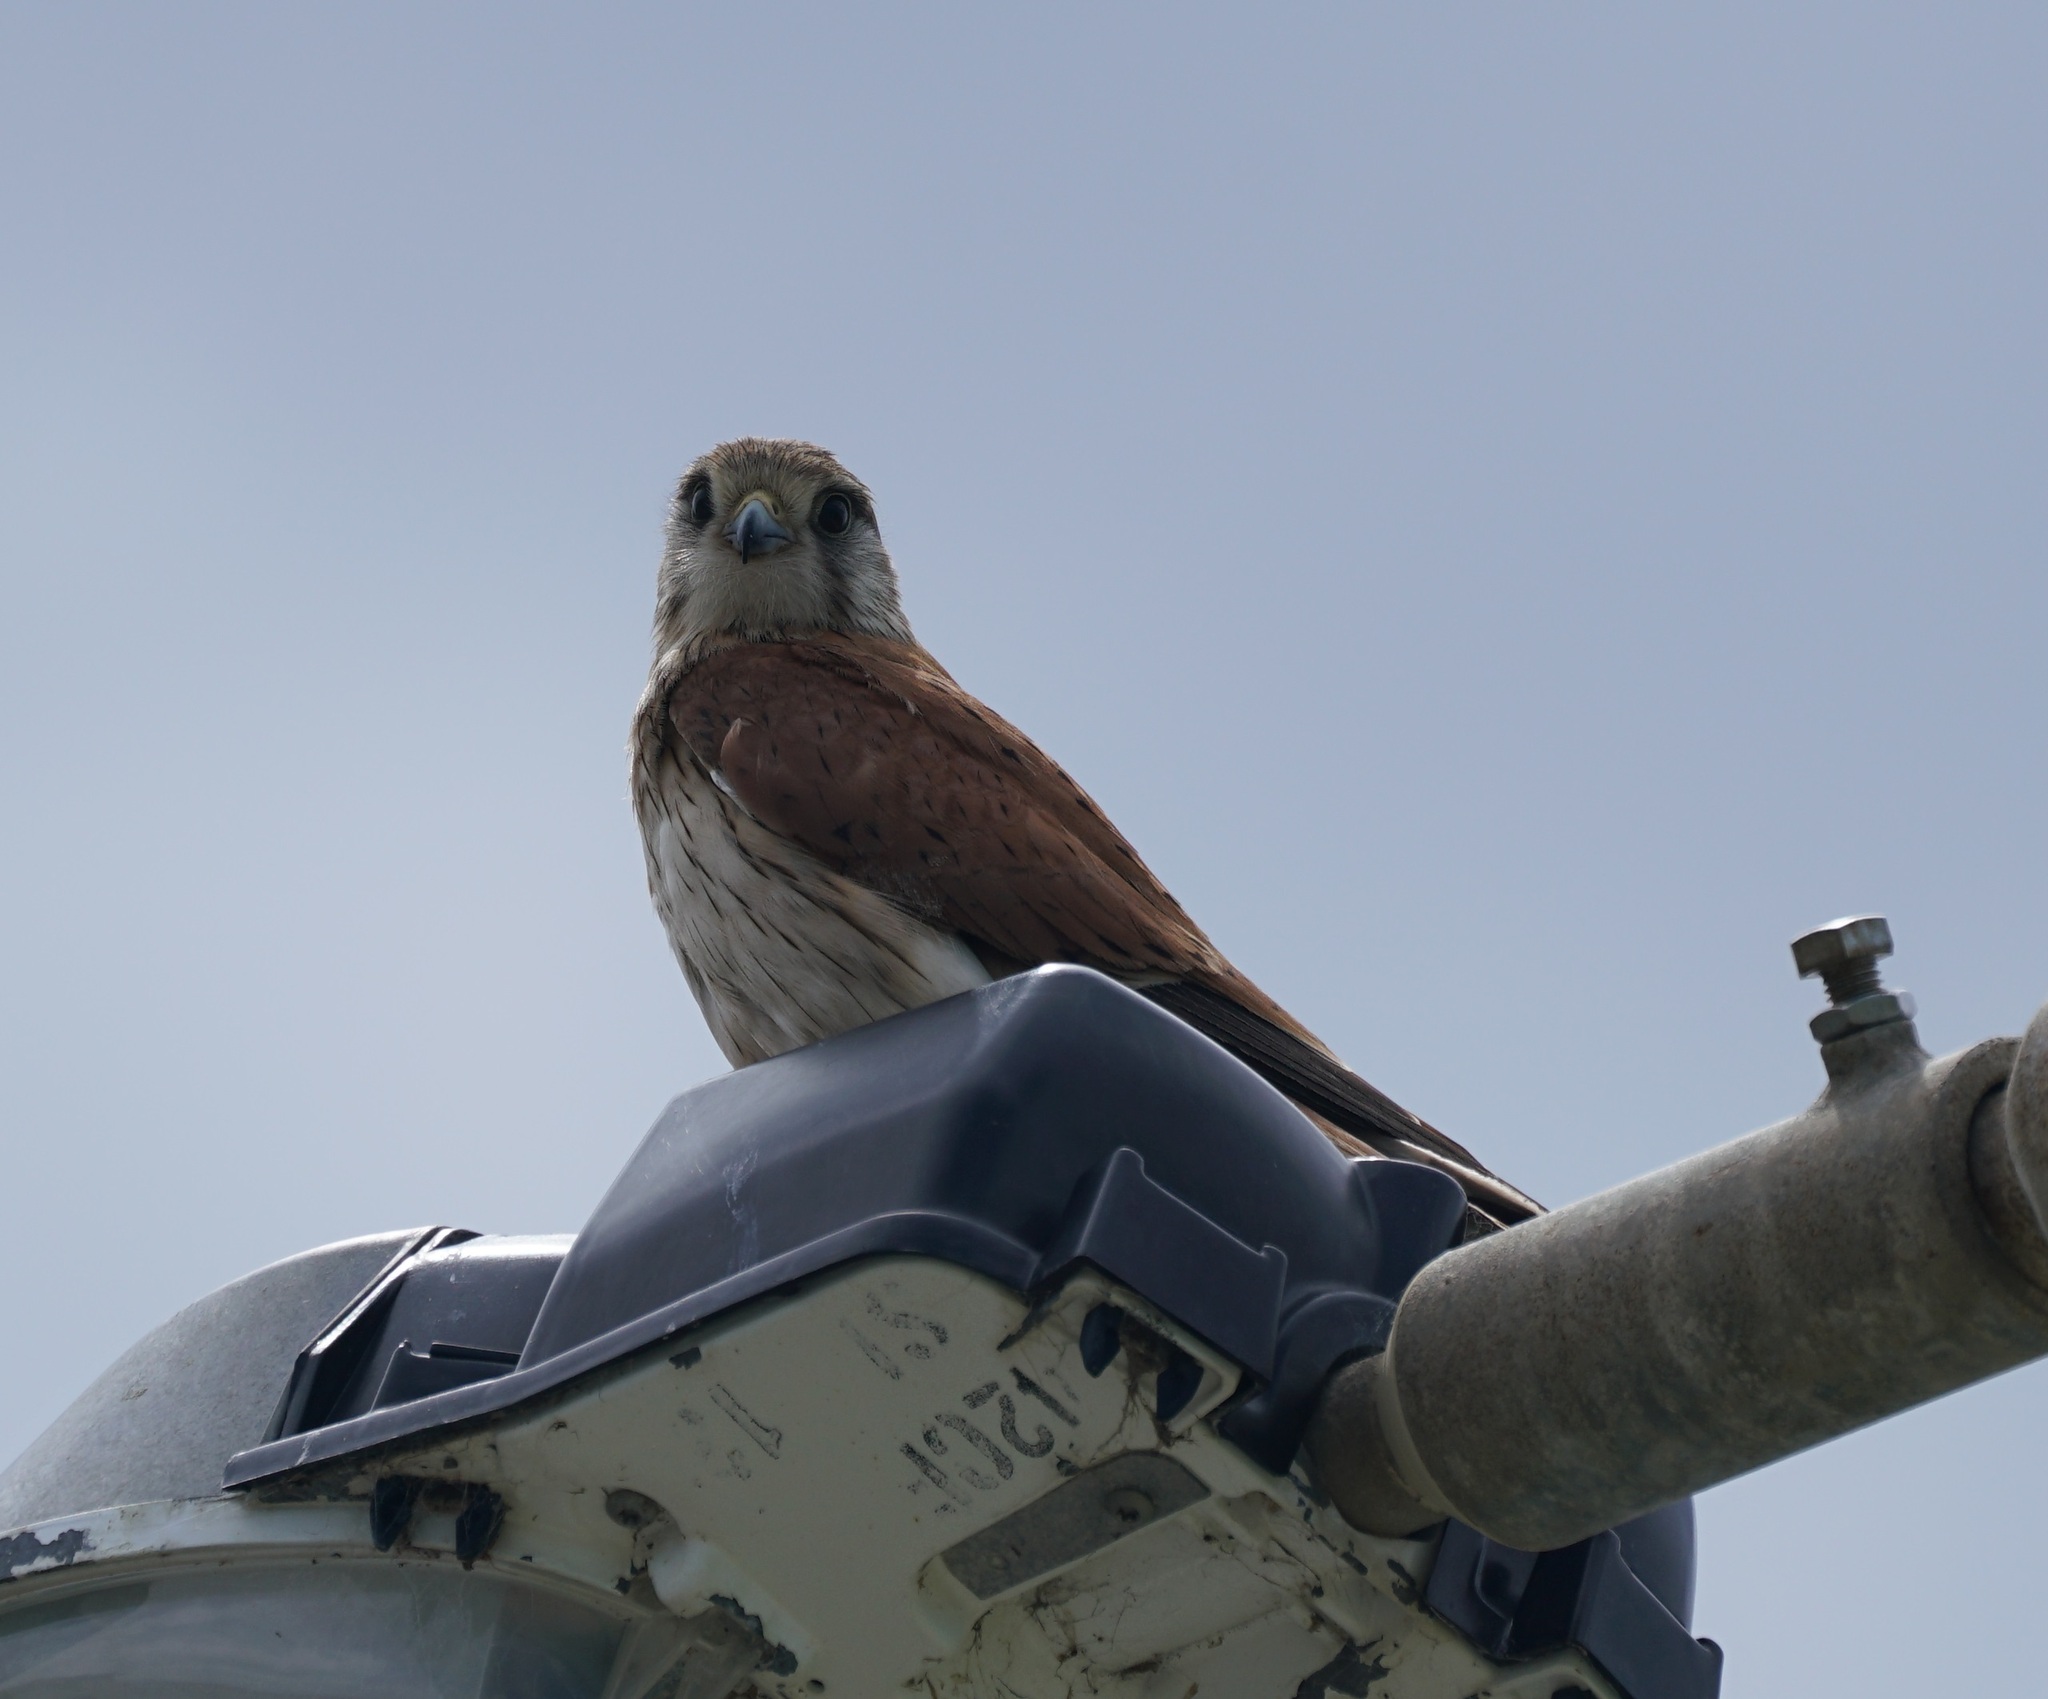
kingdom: Animalia
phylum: Chordata
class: Aves
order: Falconiformes
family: Falconidae
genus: Falco
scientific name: Falco cenchroides
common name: Nankeen kestrel
